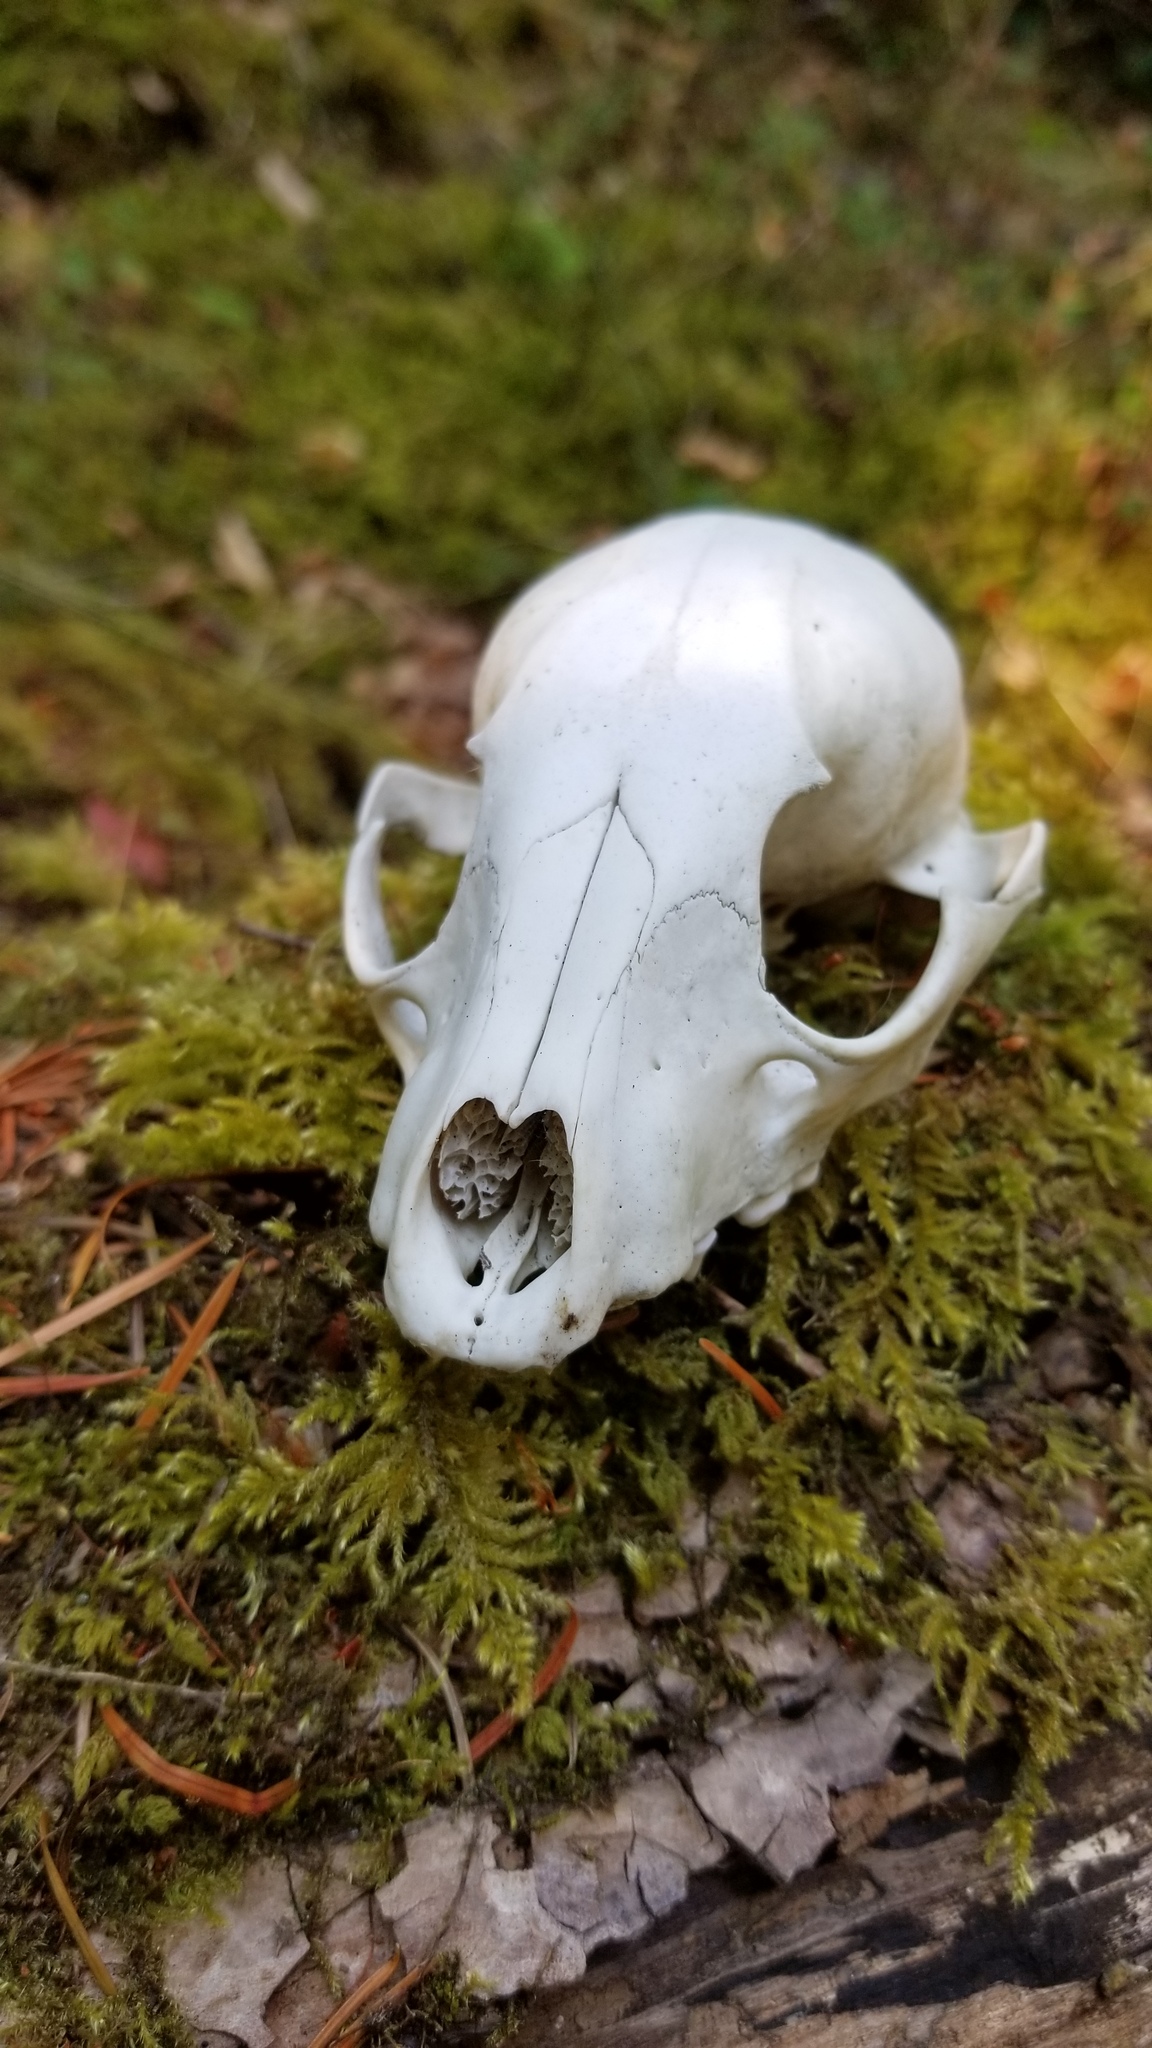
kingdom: Animalia
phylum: Chordata
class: Mammalia
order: Carnivora
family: Procyonidae
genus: Procyon
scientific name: Procyon lotor
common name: Raccoon
